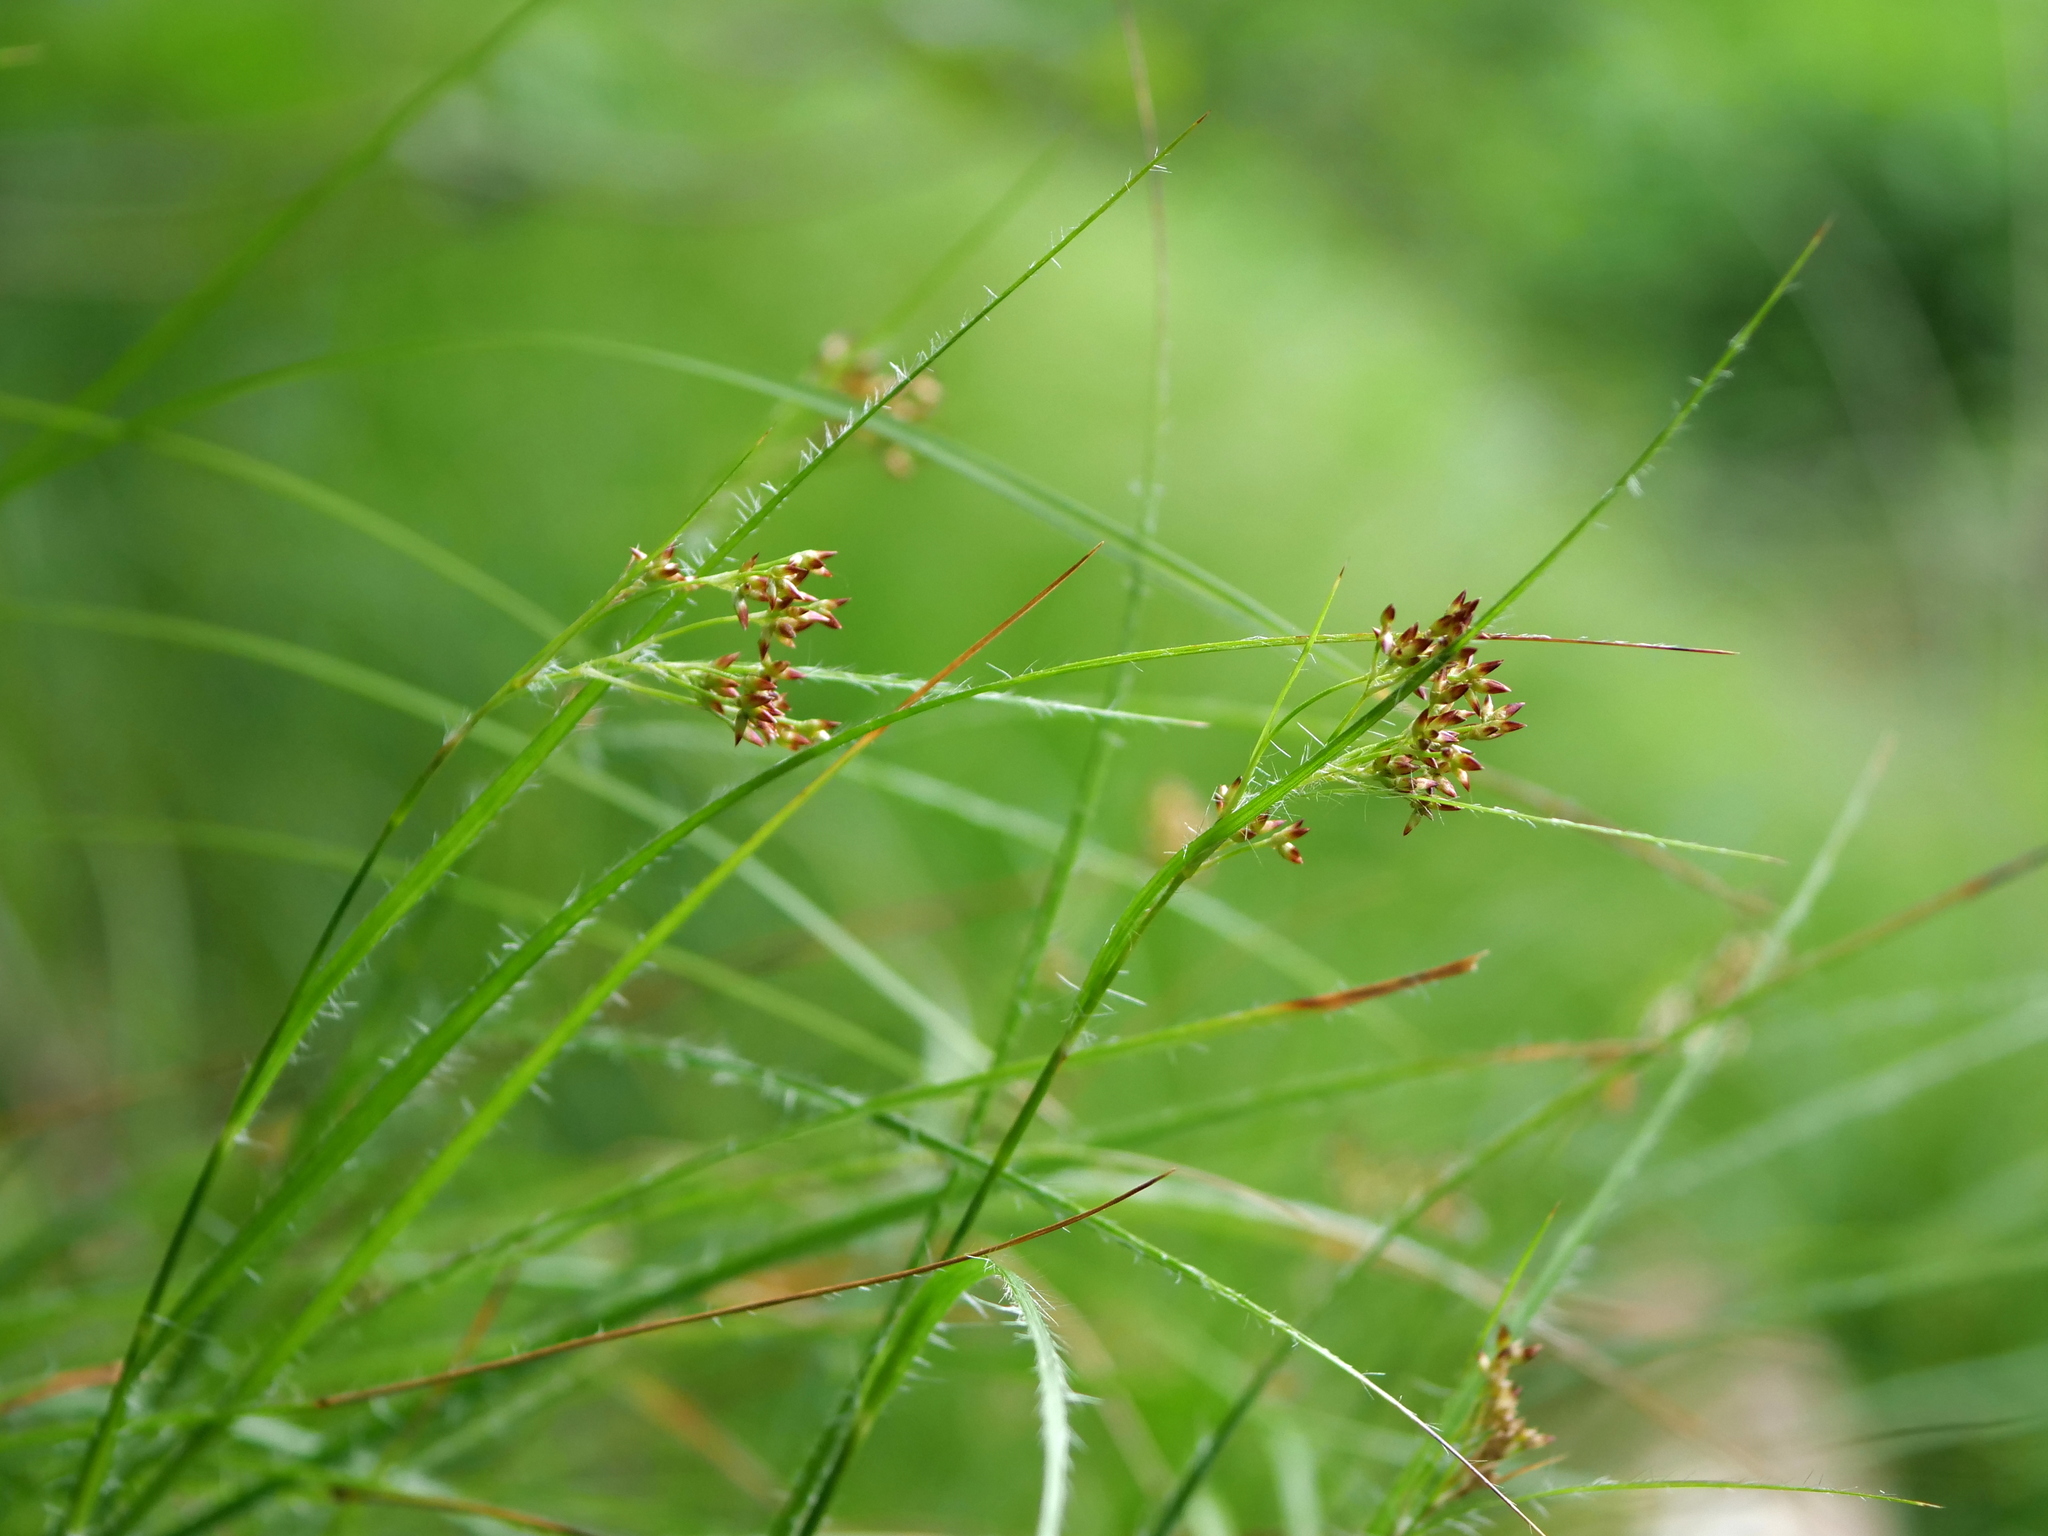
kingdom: Plantae
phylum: Tracheophyta
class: Liliopsida
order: Poales
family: Juncaceae
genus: Luzula
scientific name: Luzula luzuloides
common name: White wood-rush
